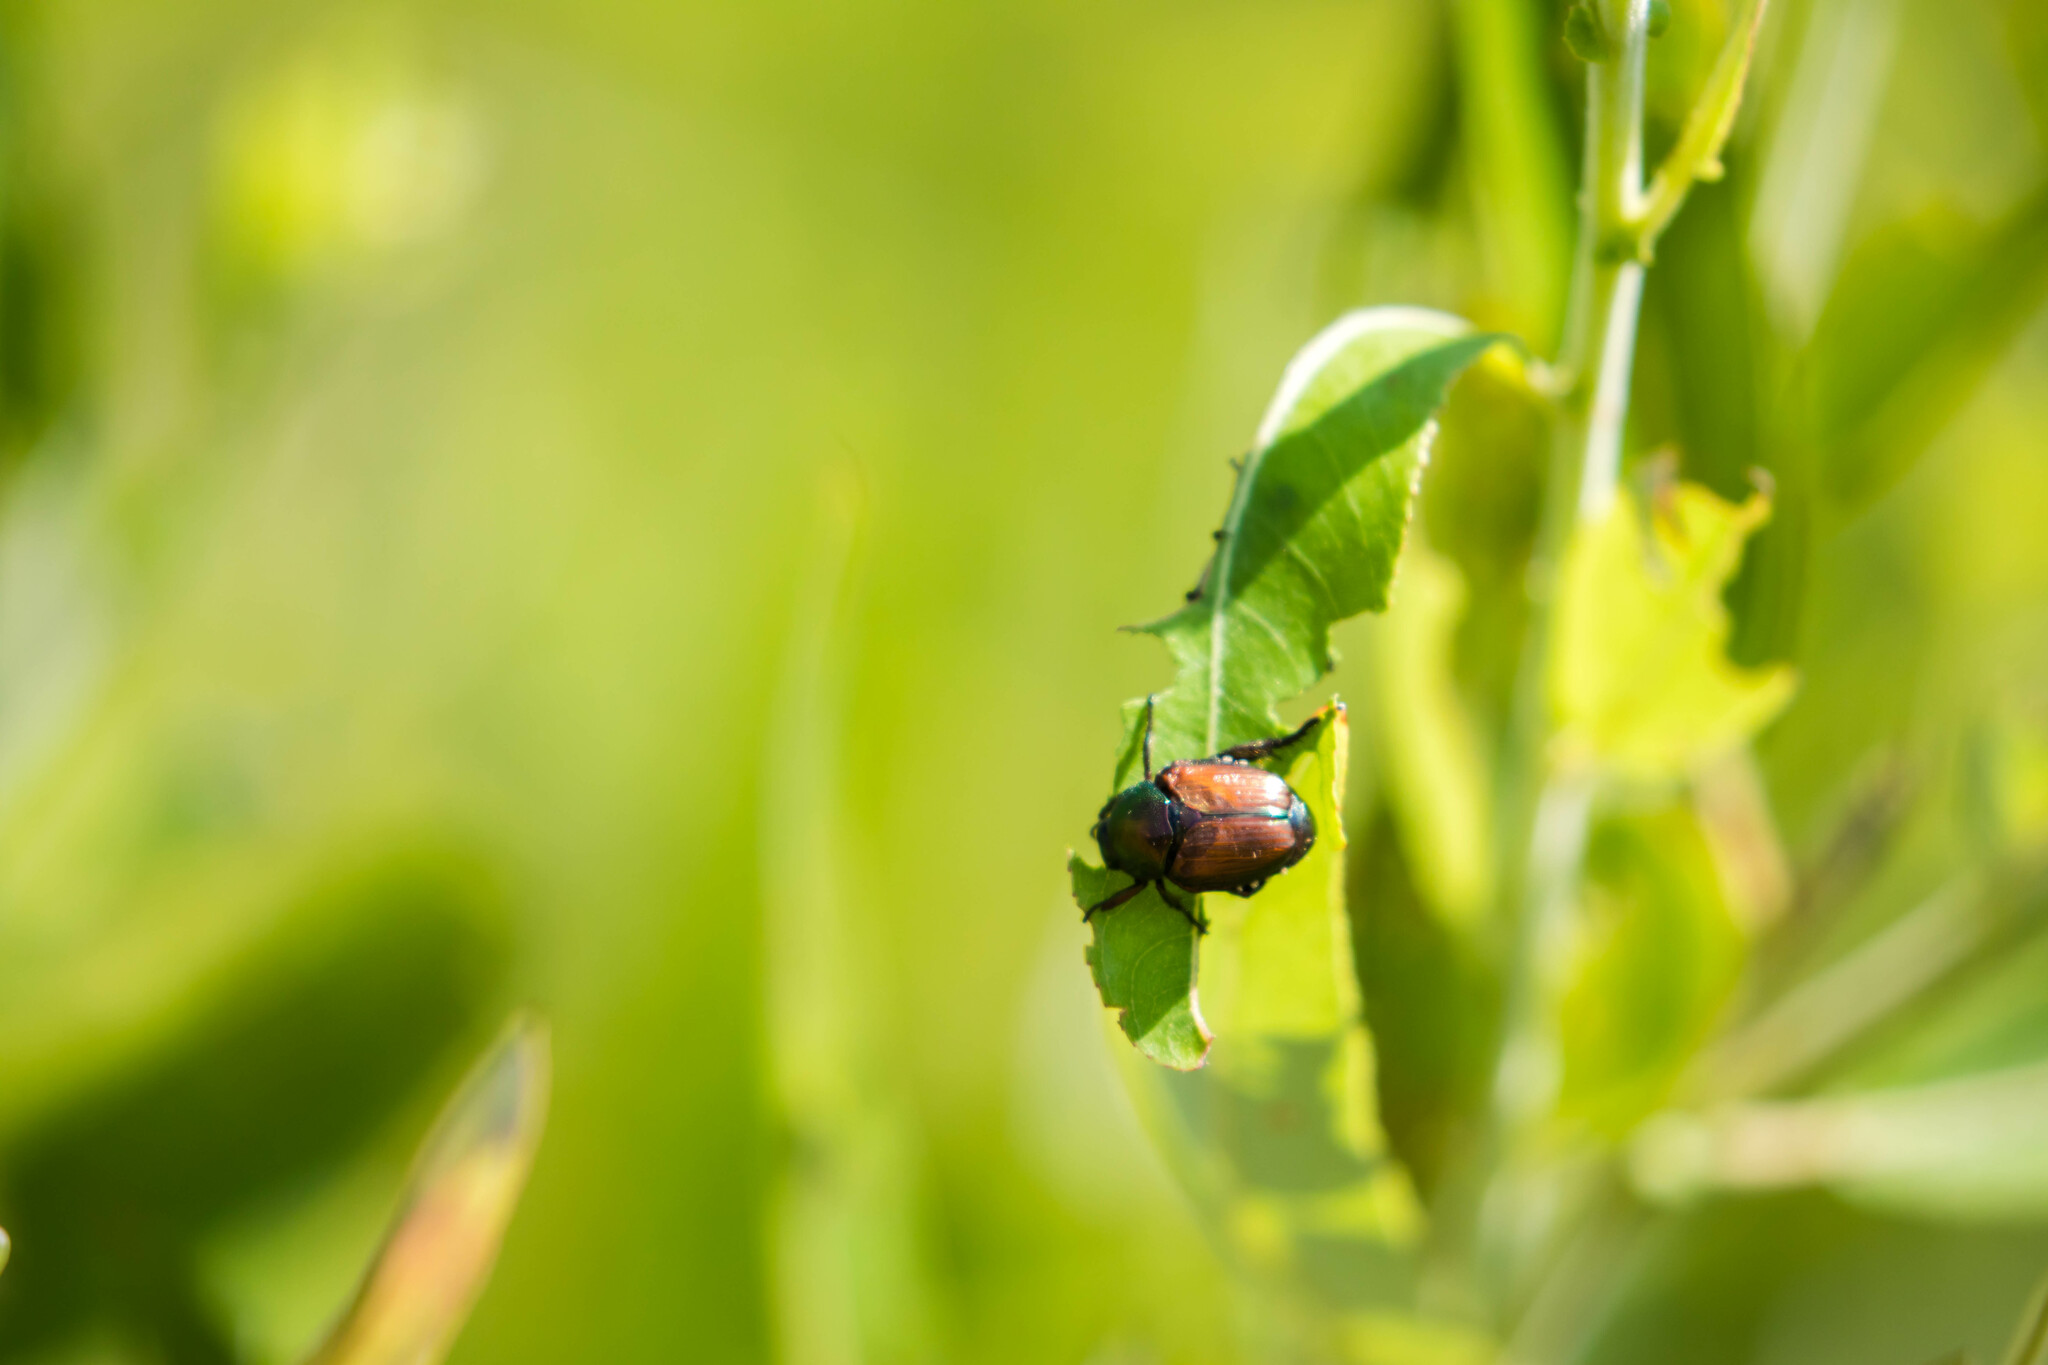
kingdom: Animalia
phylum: Arthropoda
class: Insecta
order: Coleoptera
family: Scarabaeidae
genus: Popillia
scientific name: Popillia japonica
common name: Japanese beetle
